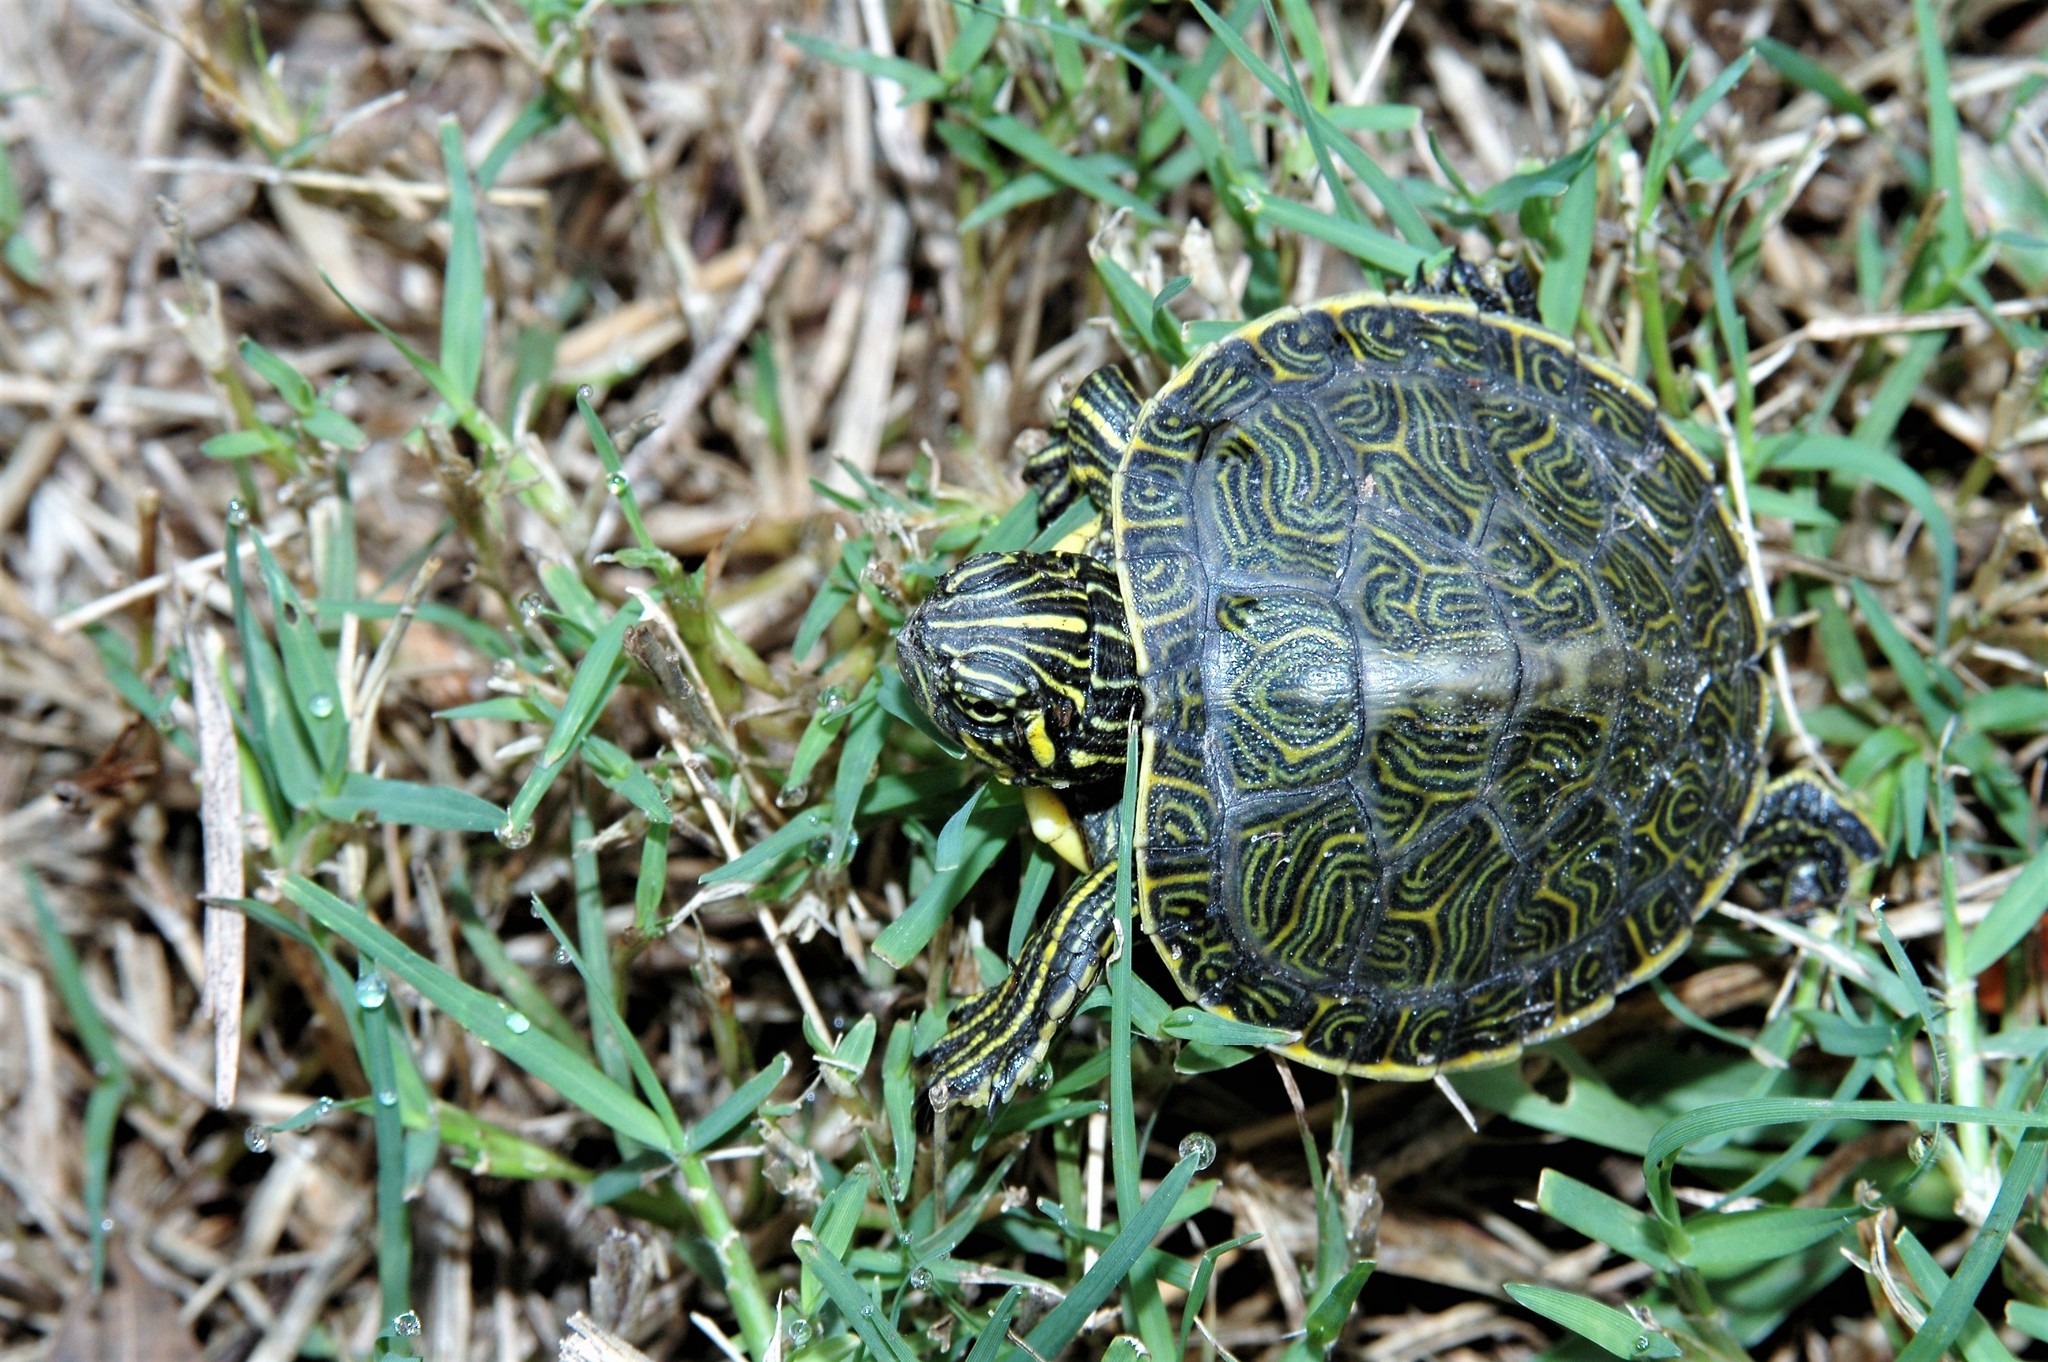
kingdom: Animalia
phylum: Chordata
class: Testudines
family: Emydidae
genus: Pseudemys
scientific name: Pseudemys concinna
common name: Eastern river cooter
